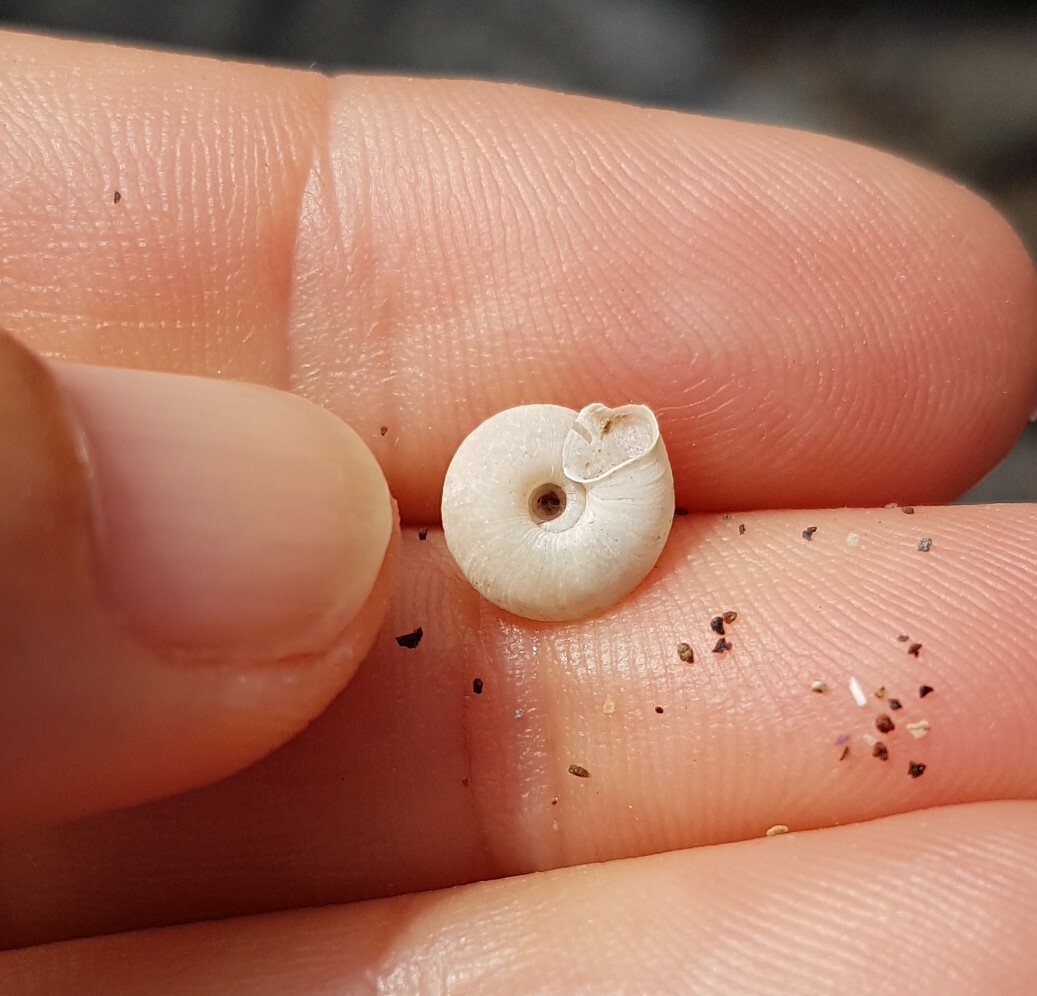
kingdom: Animalia
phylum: Mollusca
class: Gastropoda
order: Stylommatophora
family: Trissexodontidae
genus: Caracollina
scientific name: Caracollina lenticula
